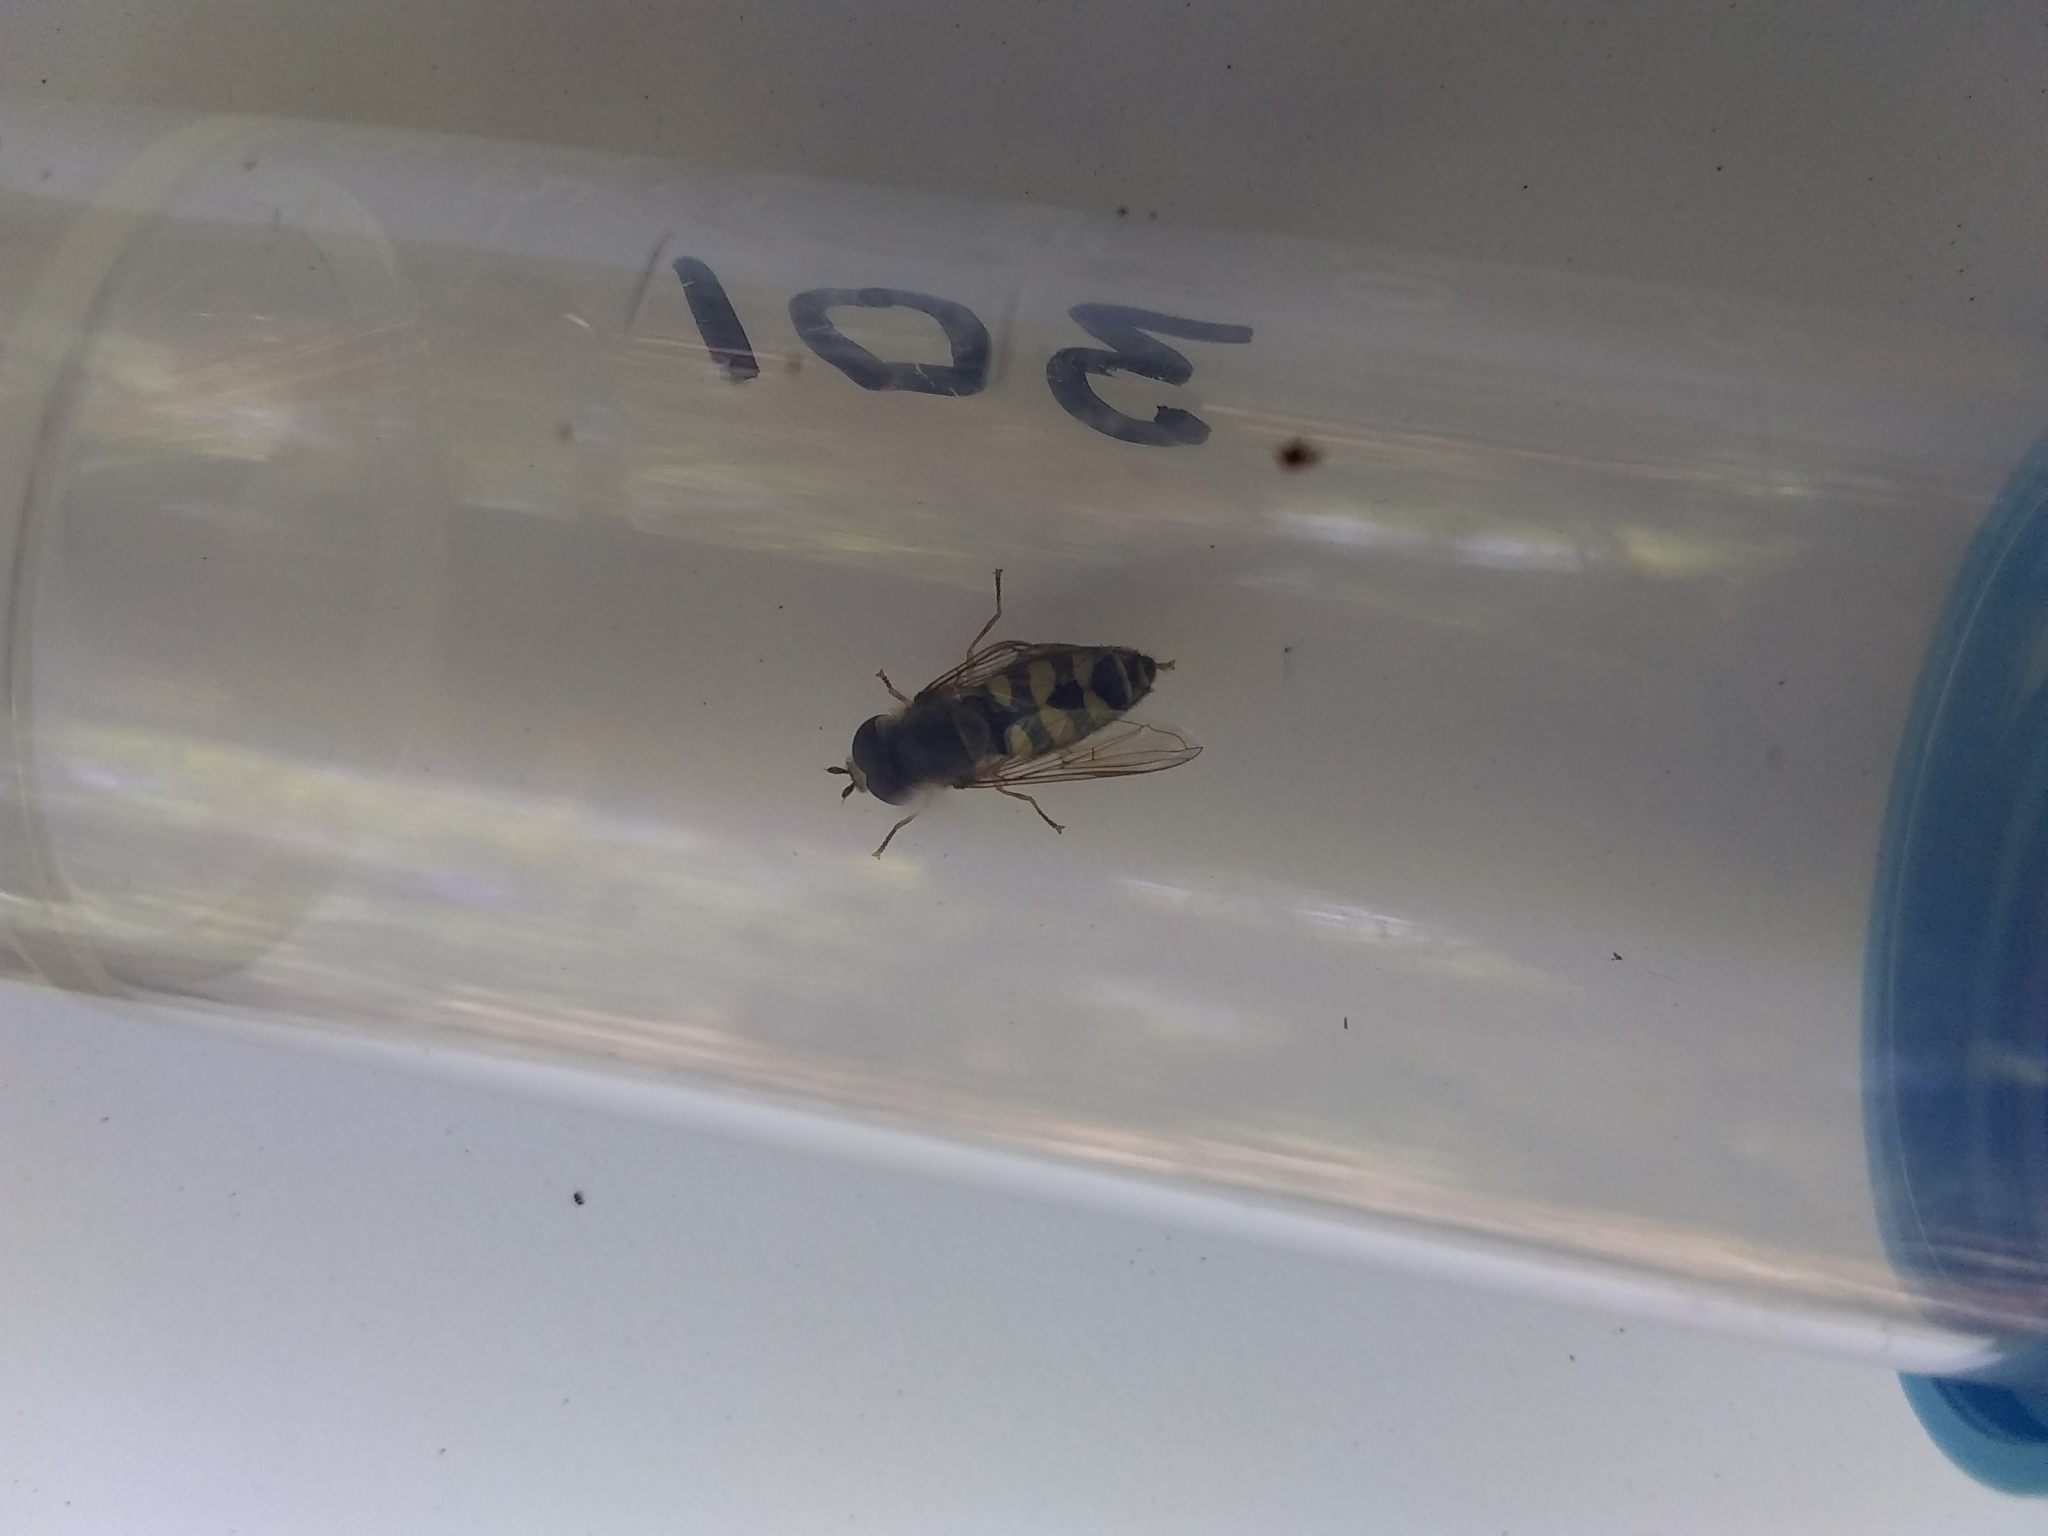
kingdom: Animalia
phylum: Arthropoda
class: Insecta
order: Diptera
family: Syrphidae
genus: Eupeodes
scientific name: Eupeodes fumipennis
